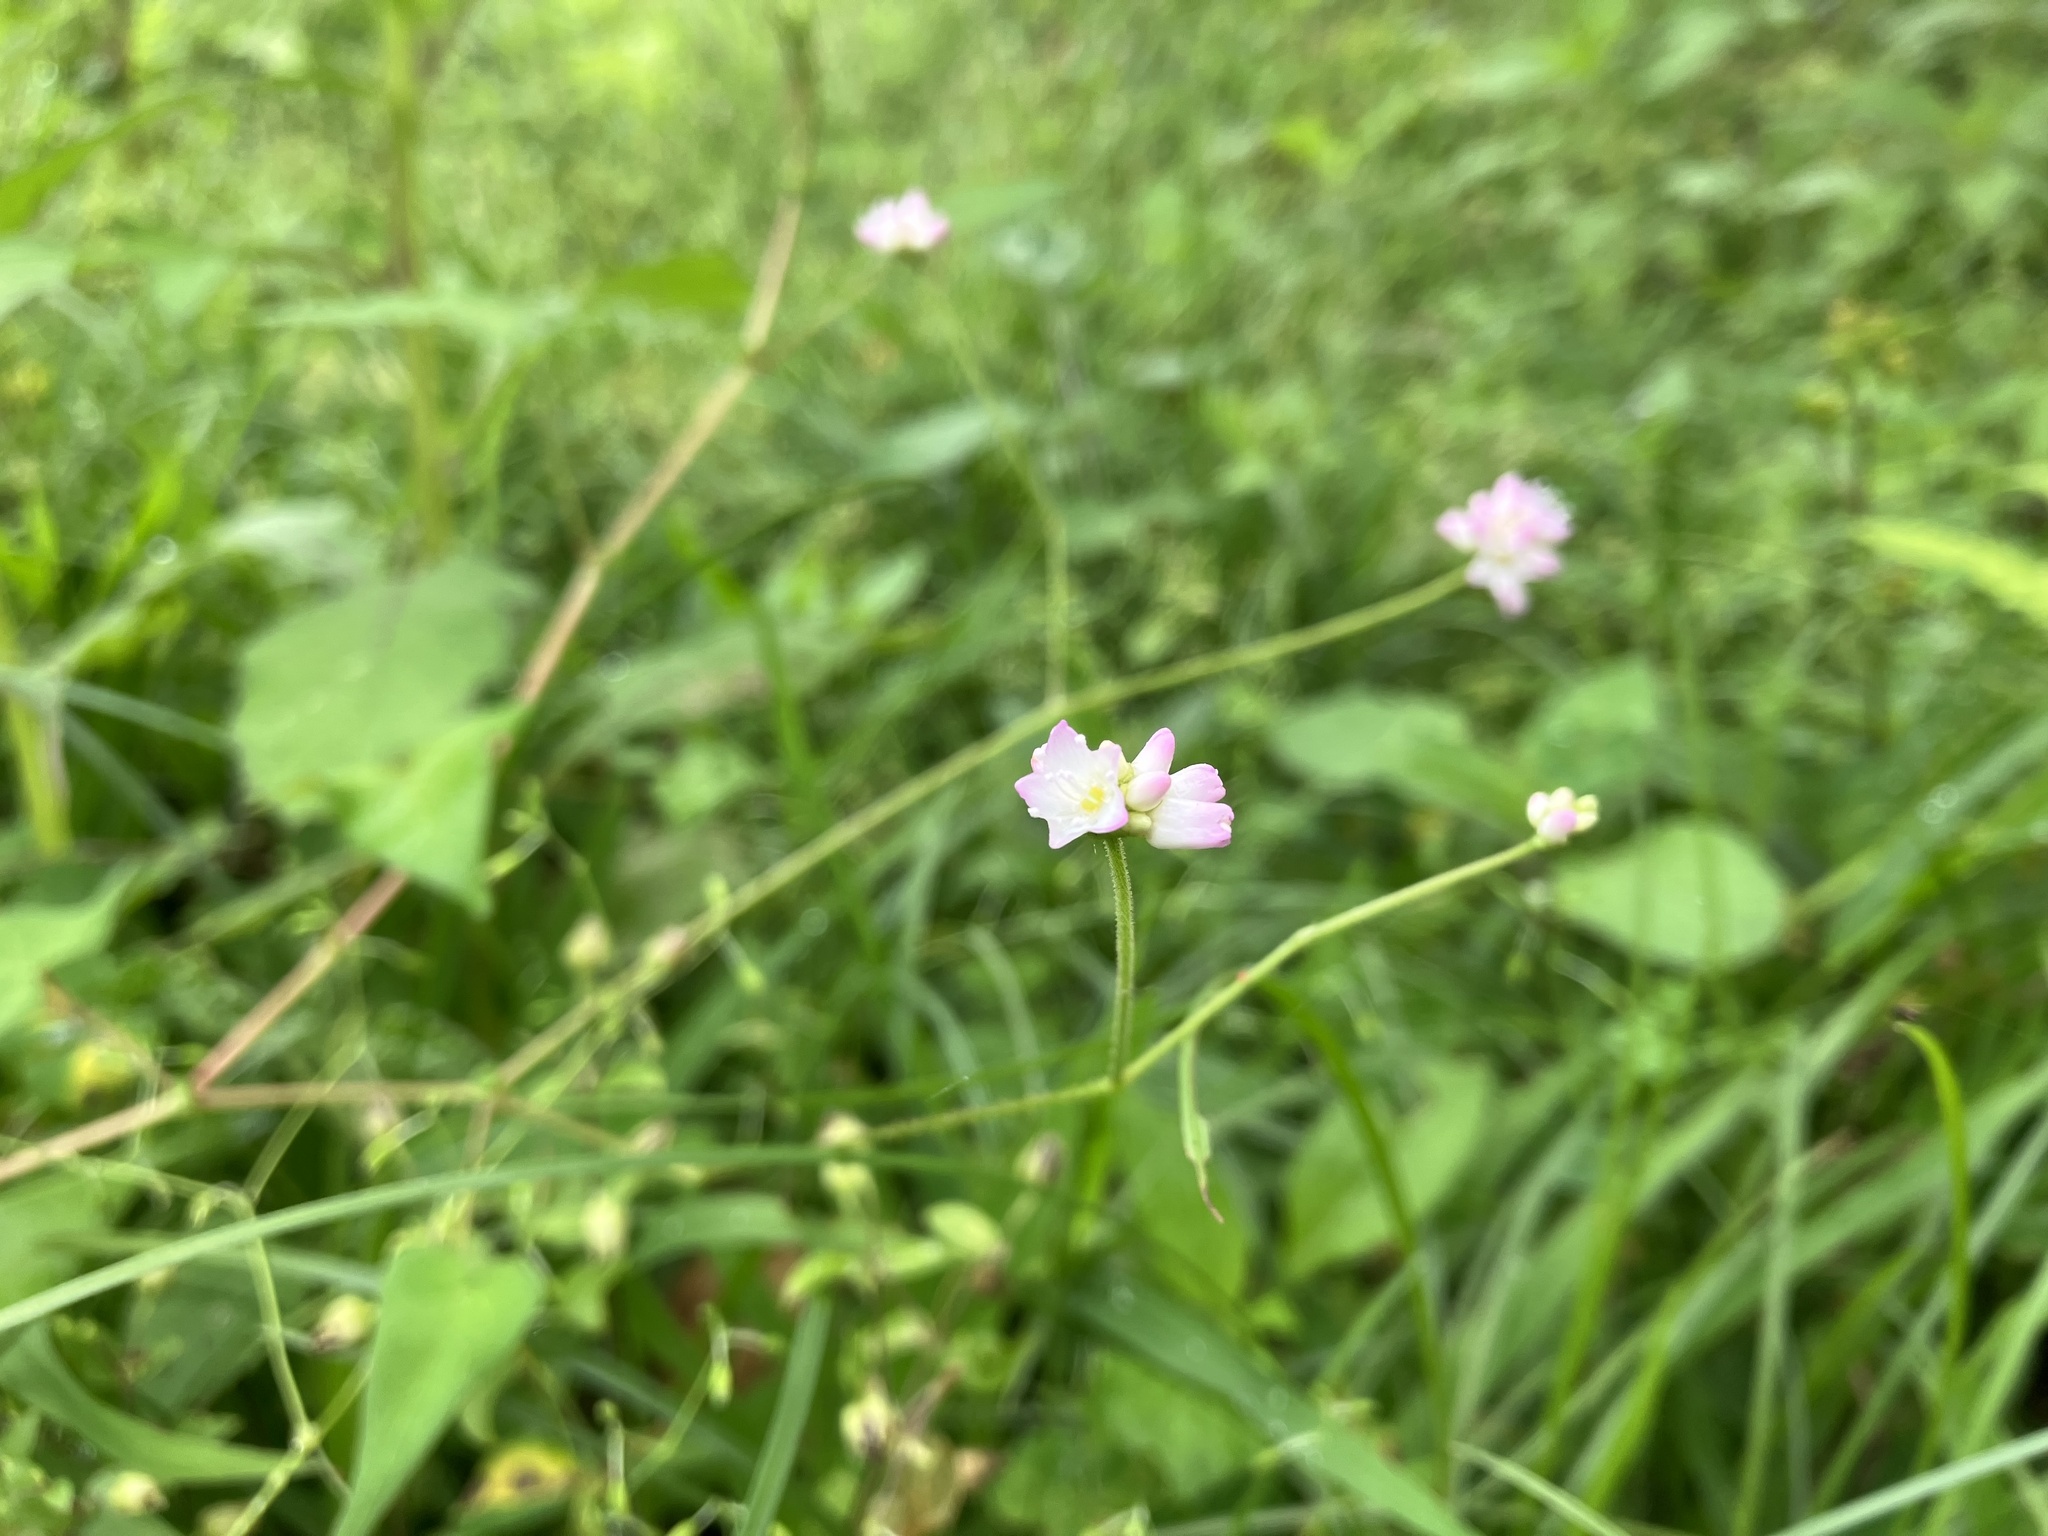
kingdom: Plantae
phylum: Tracheophyta
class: Magnoliopsida
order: Caryophyllales
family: Polygonaceae
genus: Persicaria
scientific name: Persicaria senticosa
